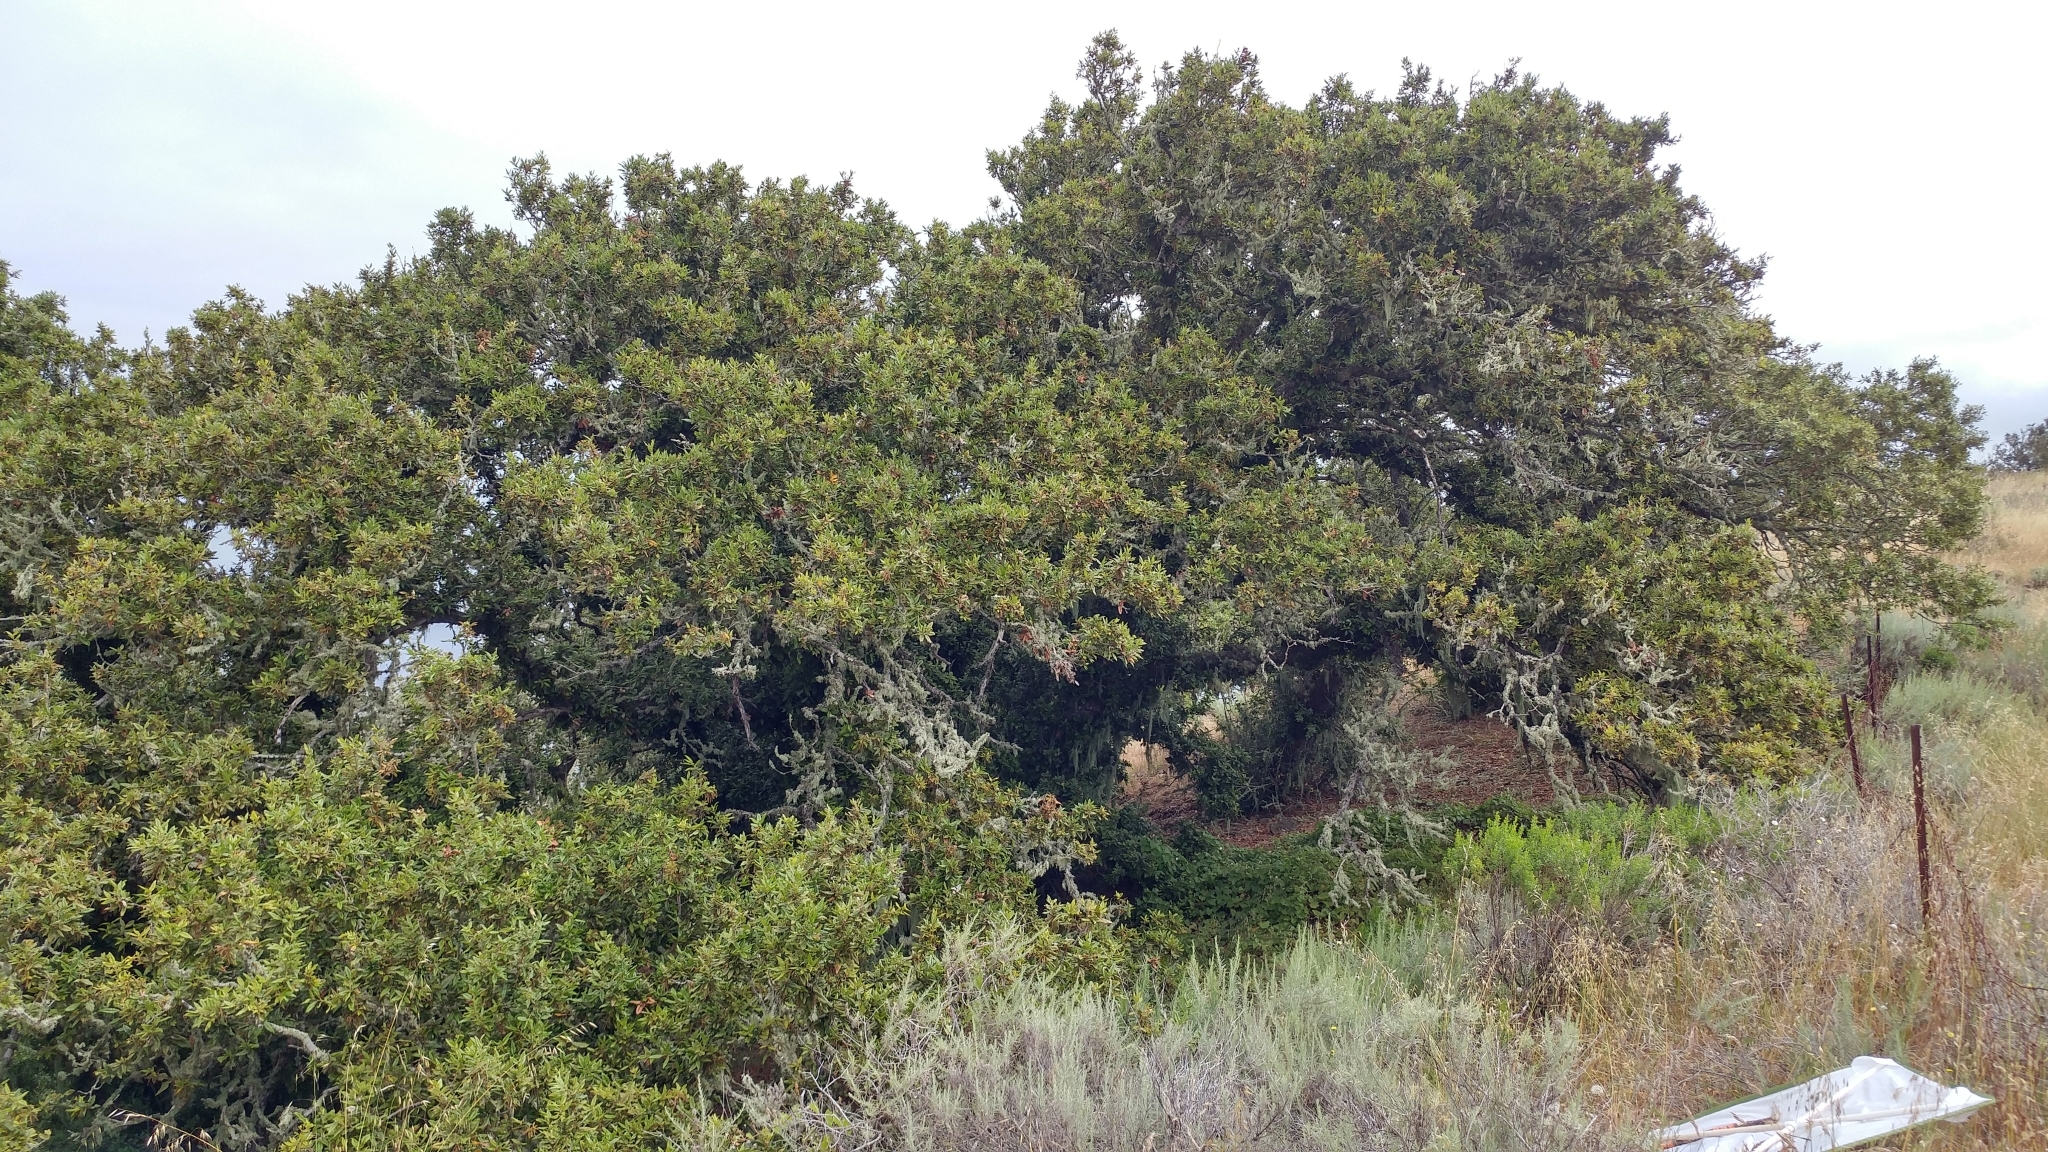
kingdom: Plantae
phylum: Tracheophyta
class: Magnoliopsida
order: Fagales
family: Fagaceae
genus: Quercus
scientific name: Quercus tomentella
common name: Island oak
